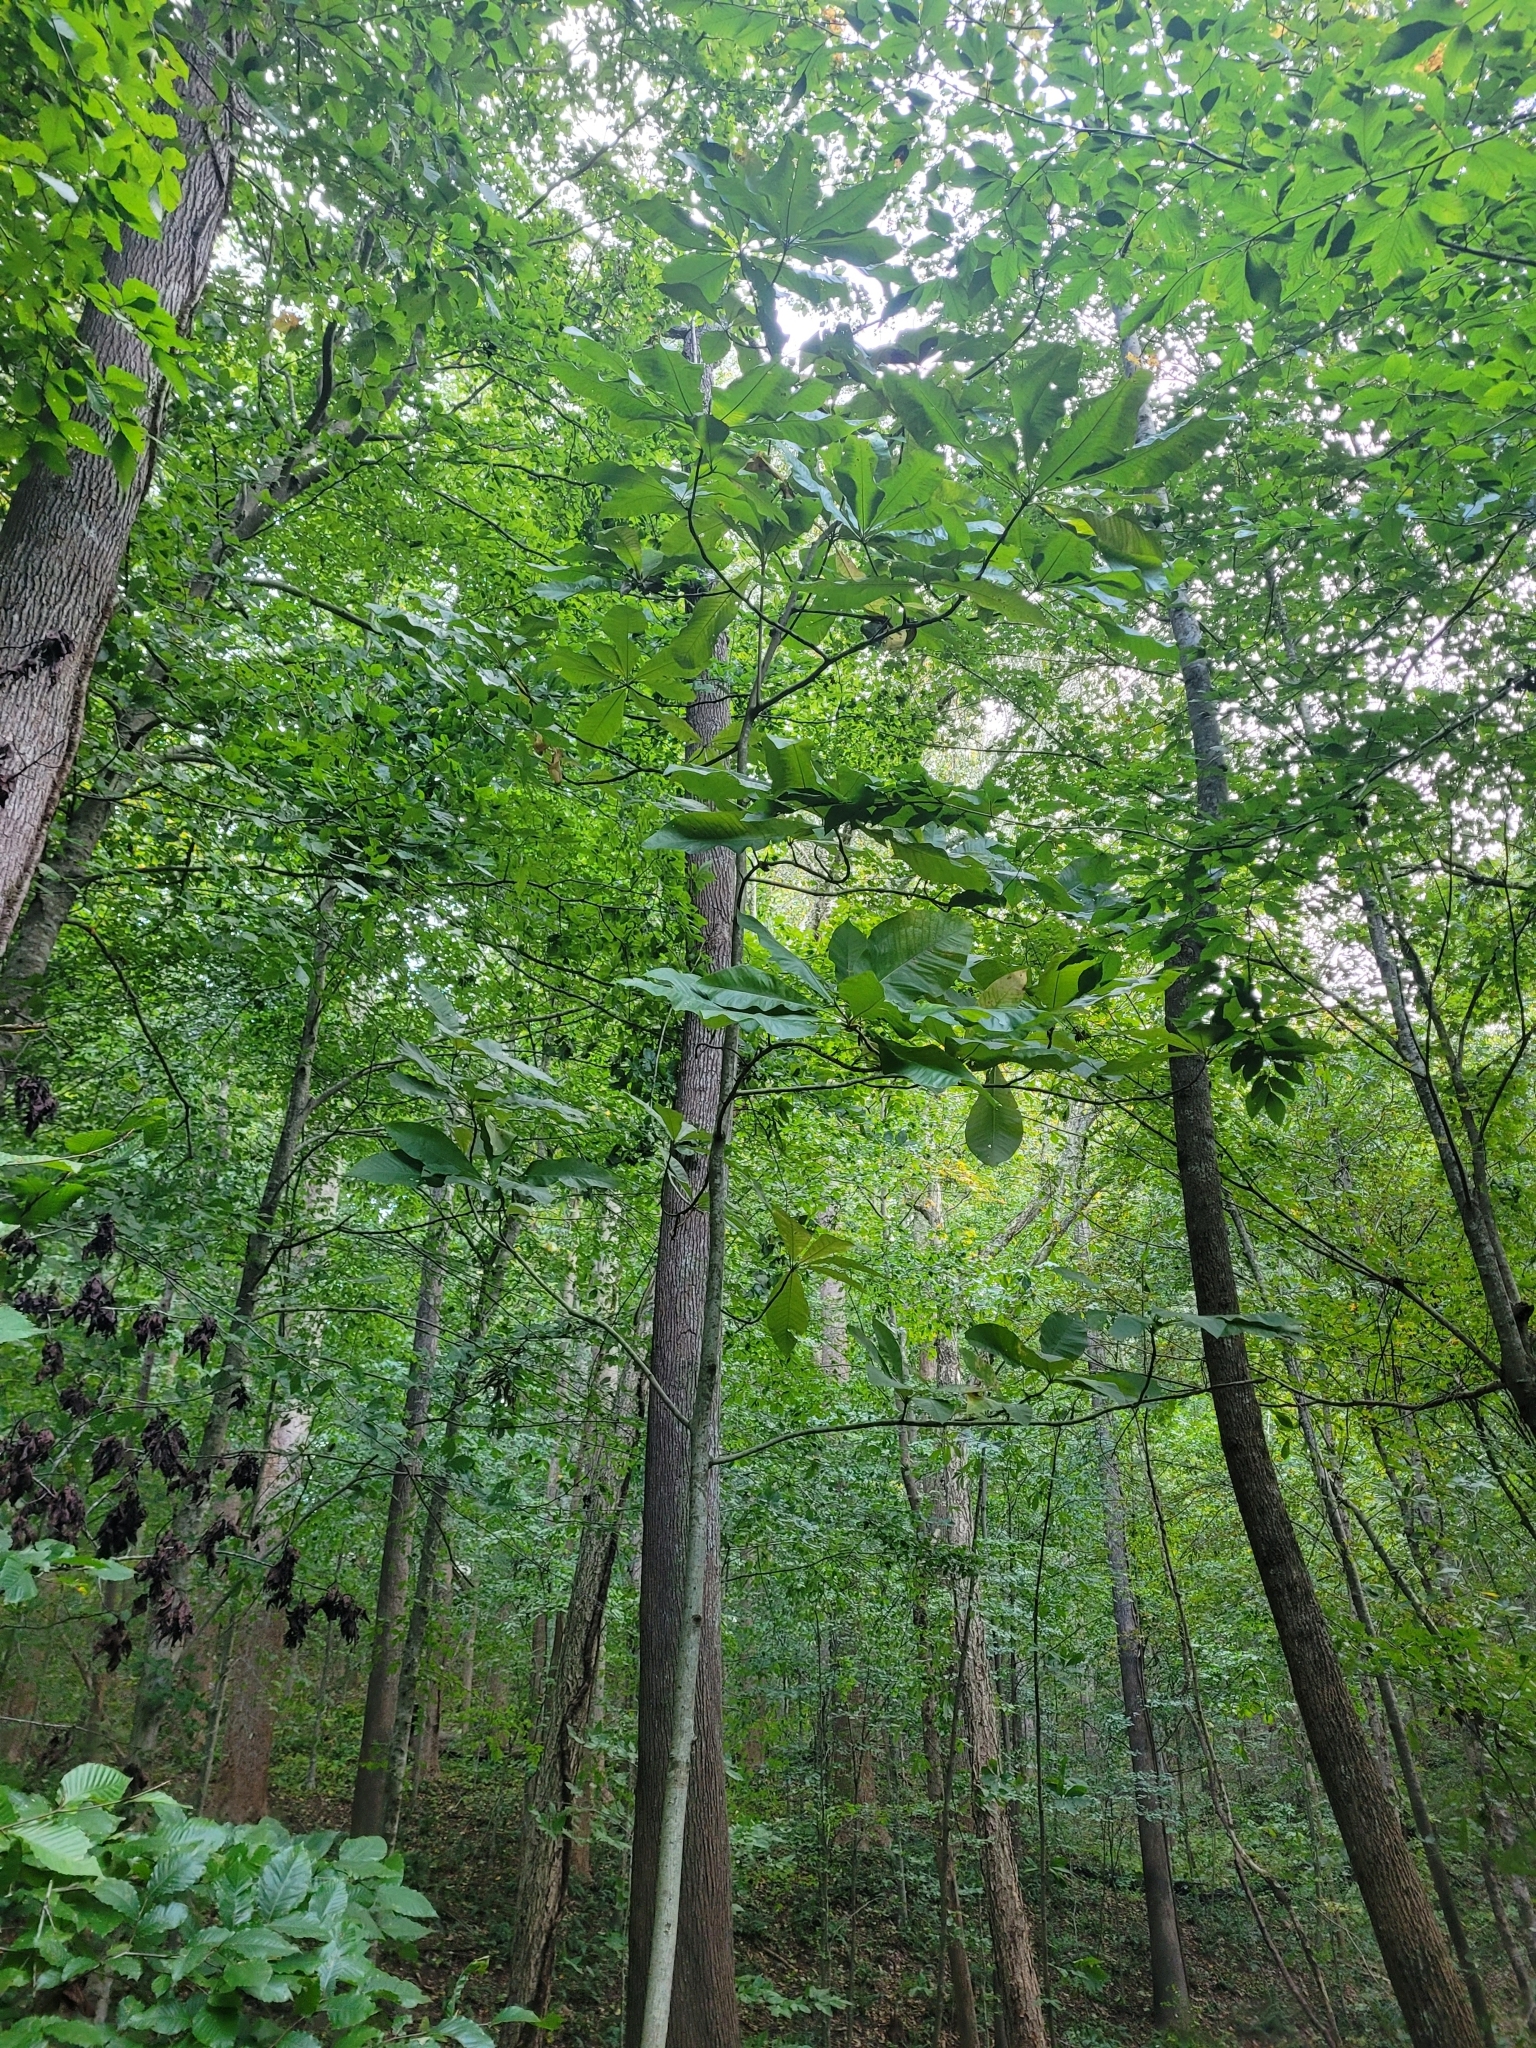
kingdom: Plantae
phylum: Tracheophyta
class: Magnoliopsida
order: Magnoliales
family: Magnoliaceae
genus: Magnolia
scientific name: Magnolia tripetala
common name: Umbrella magnolia
